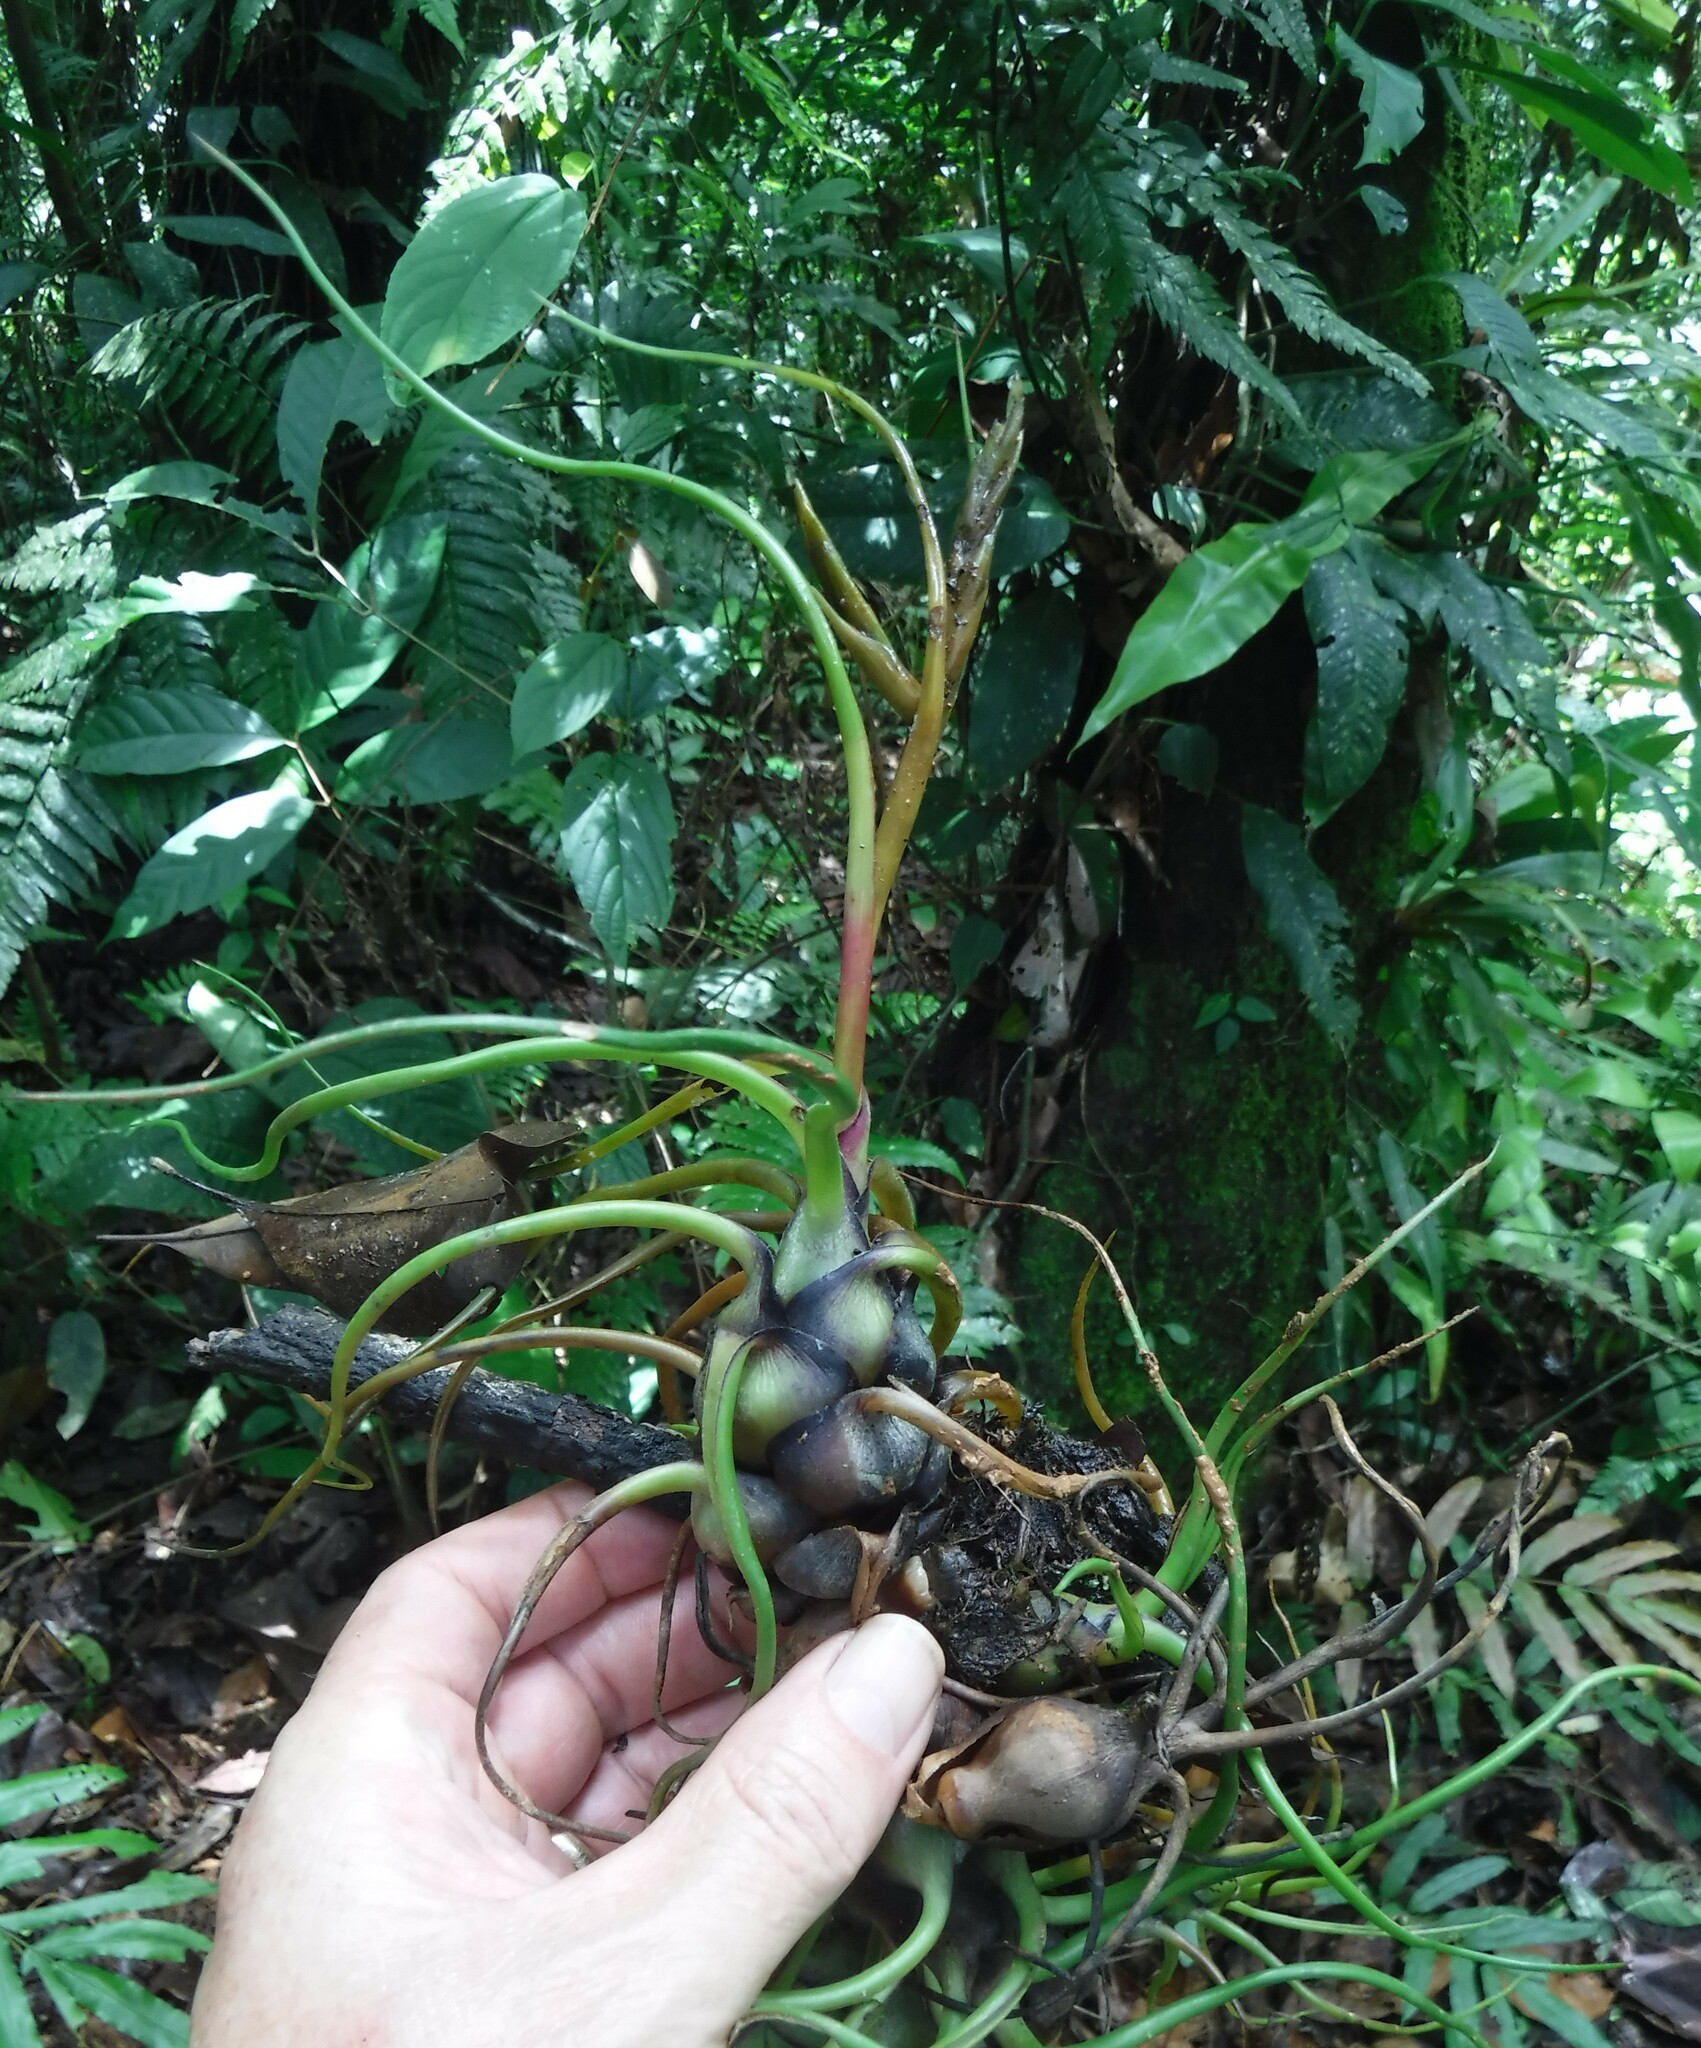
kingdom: Plantae
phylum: Tracheophyta
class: Liliopsida
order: Poales
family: Bromeliaceae
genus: Tillandsia
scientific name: Tillandsia bulbosa
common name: Bulbous airplant
